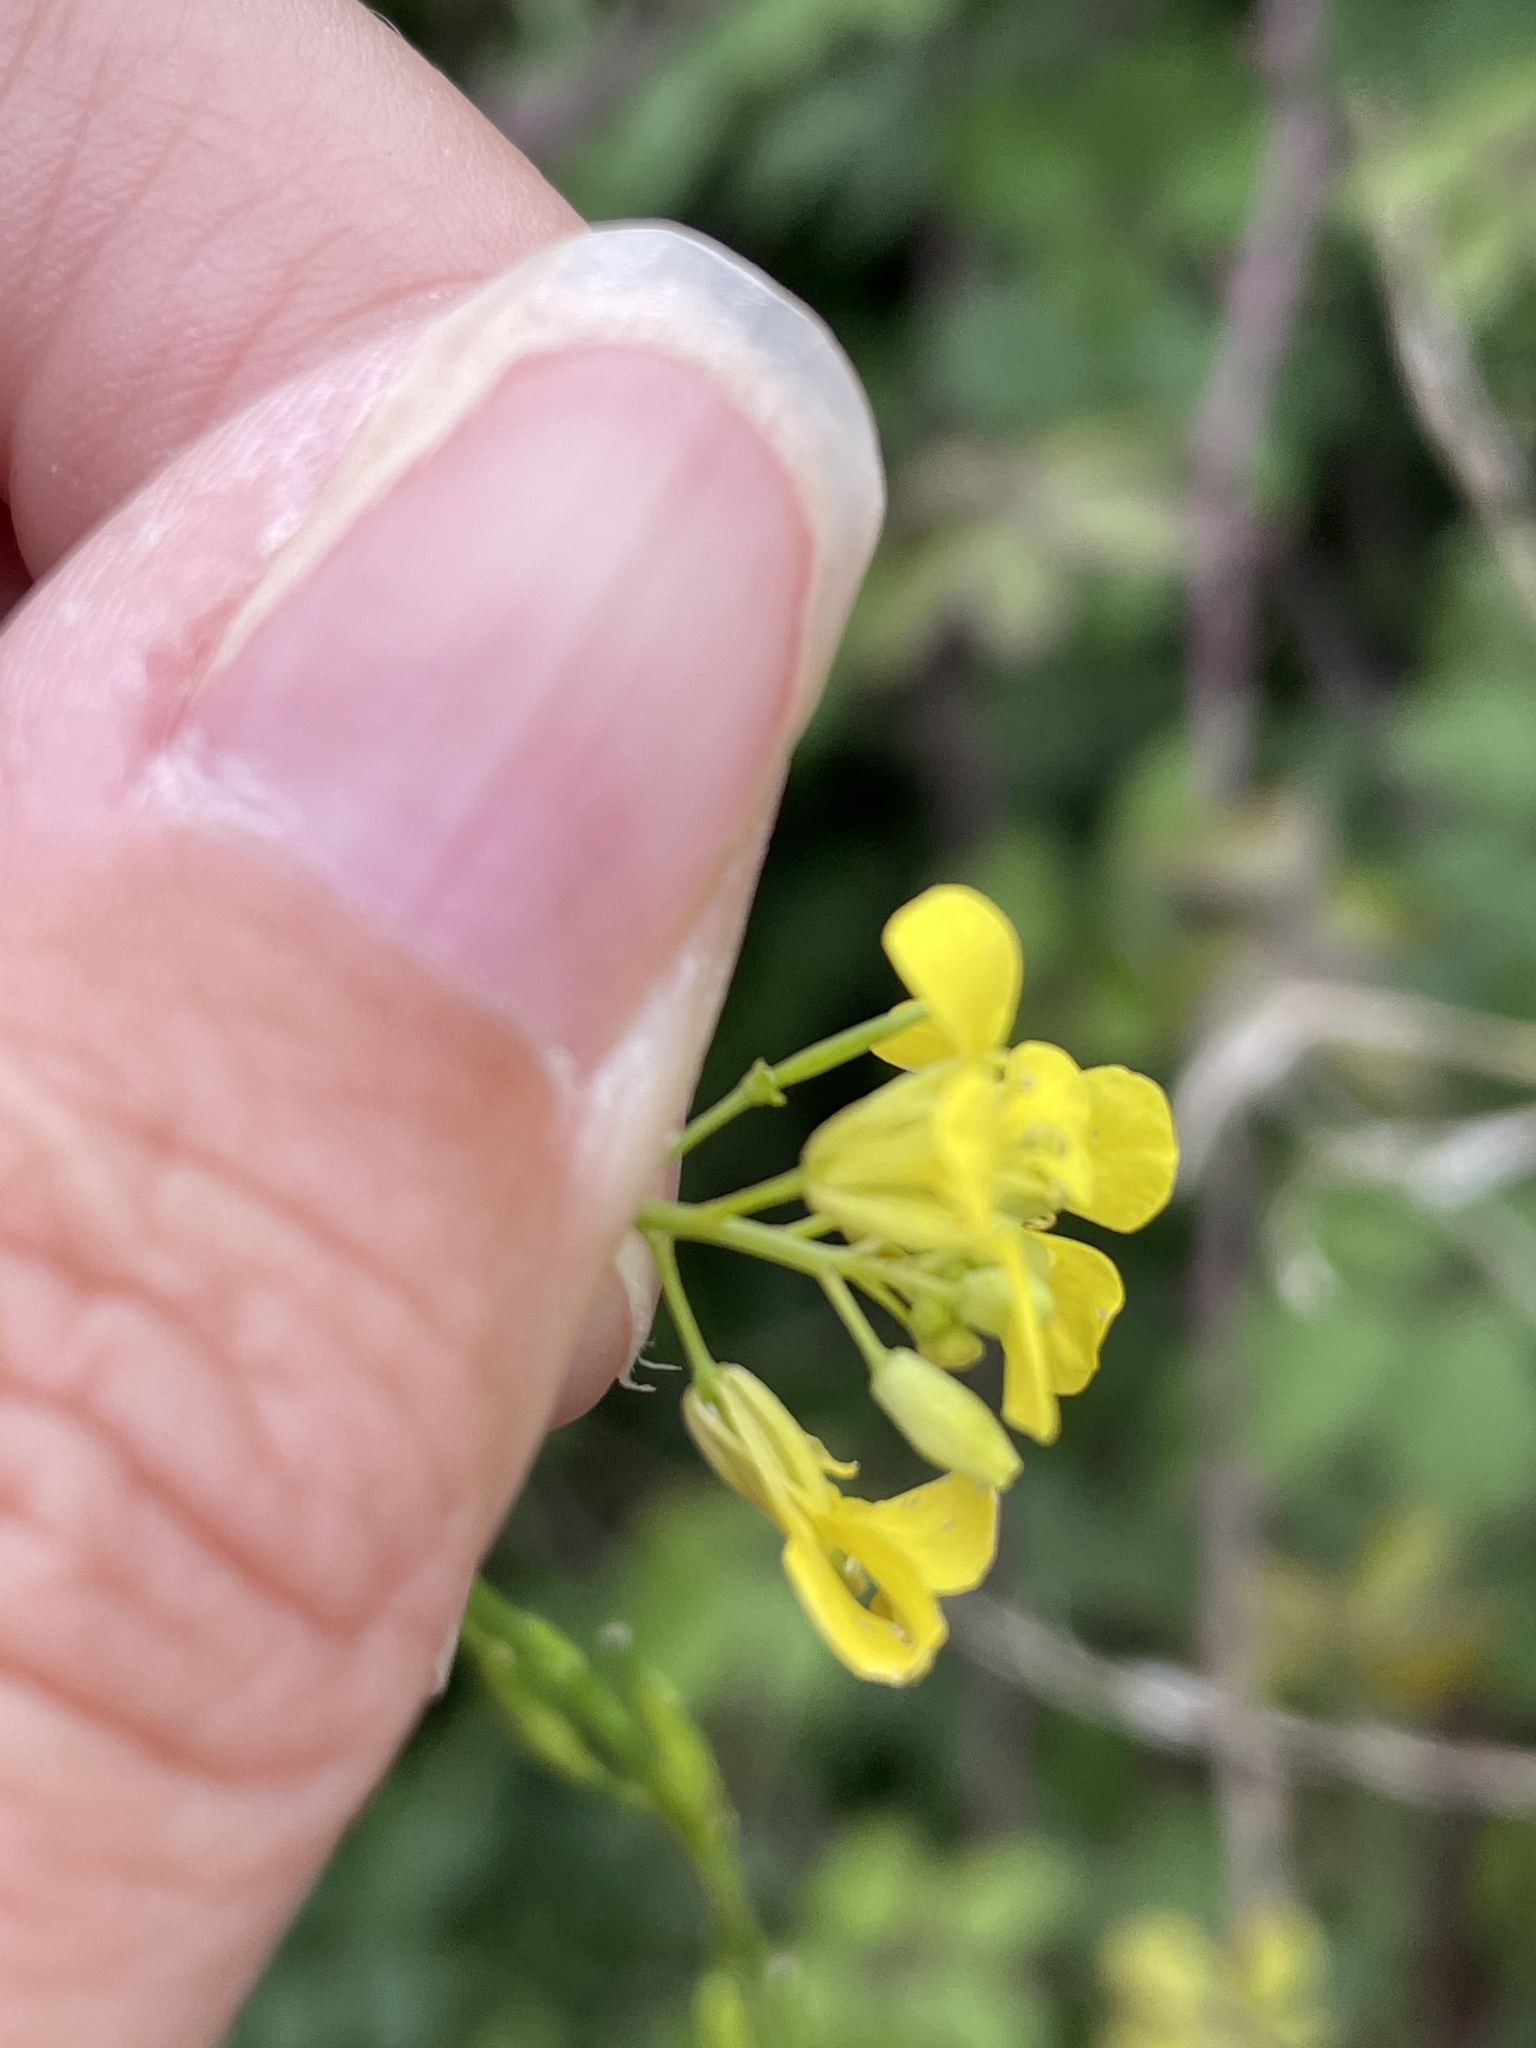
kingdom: Plantae
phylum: Tracheophyta
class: Magnoliopsida
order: Brassicales
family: Brassicaceae
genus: Hirschfeldia
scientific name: Hirschfeldia incana
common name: Hoary mustard
